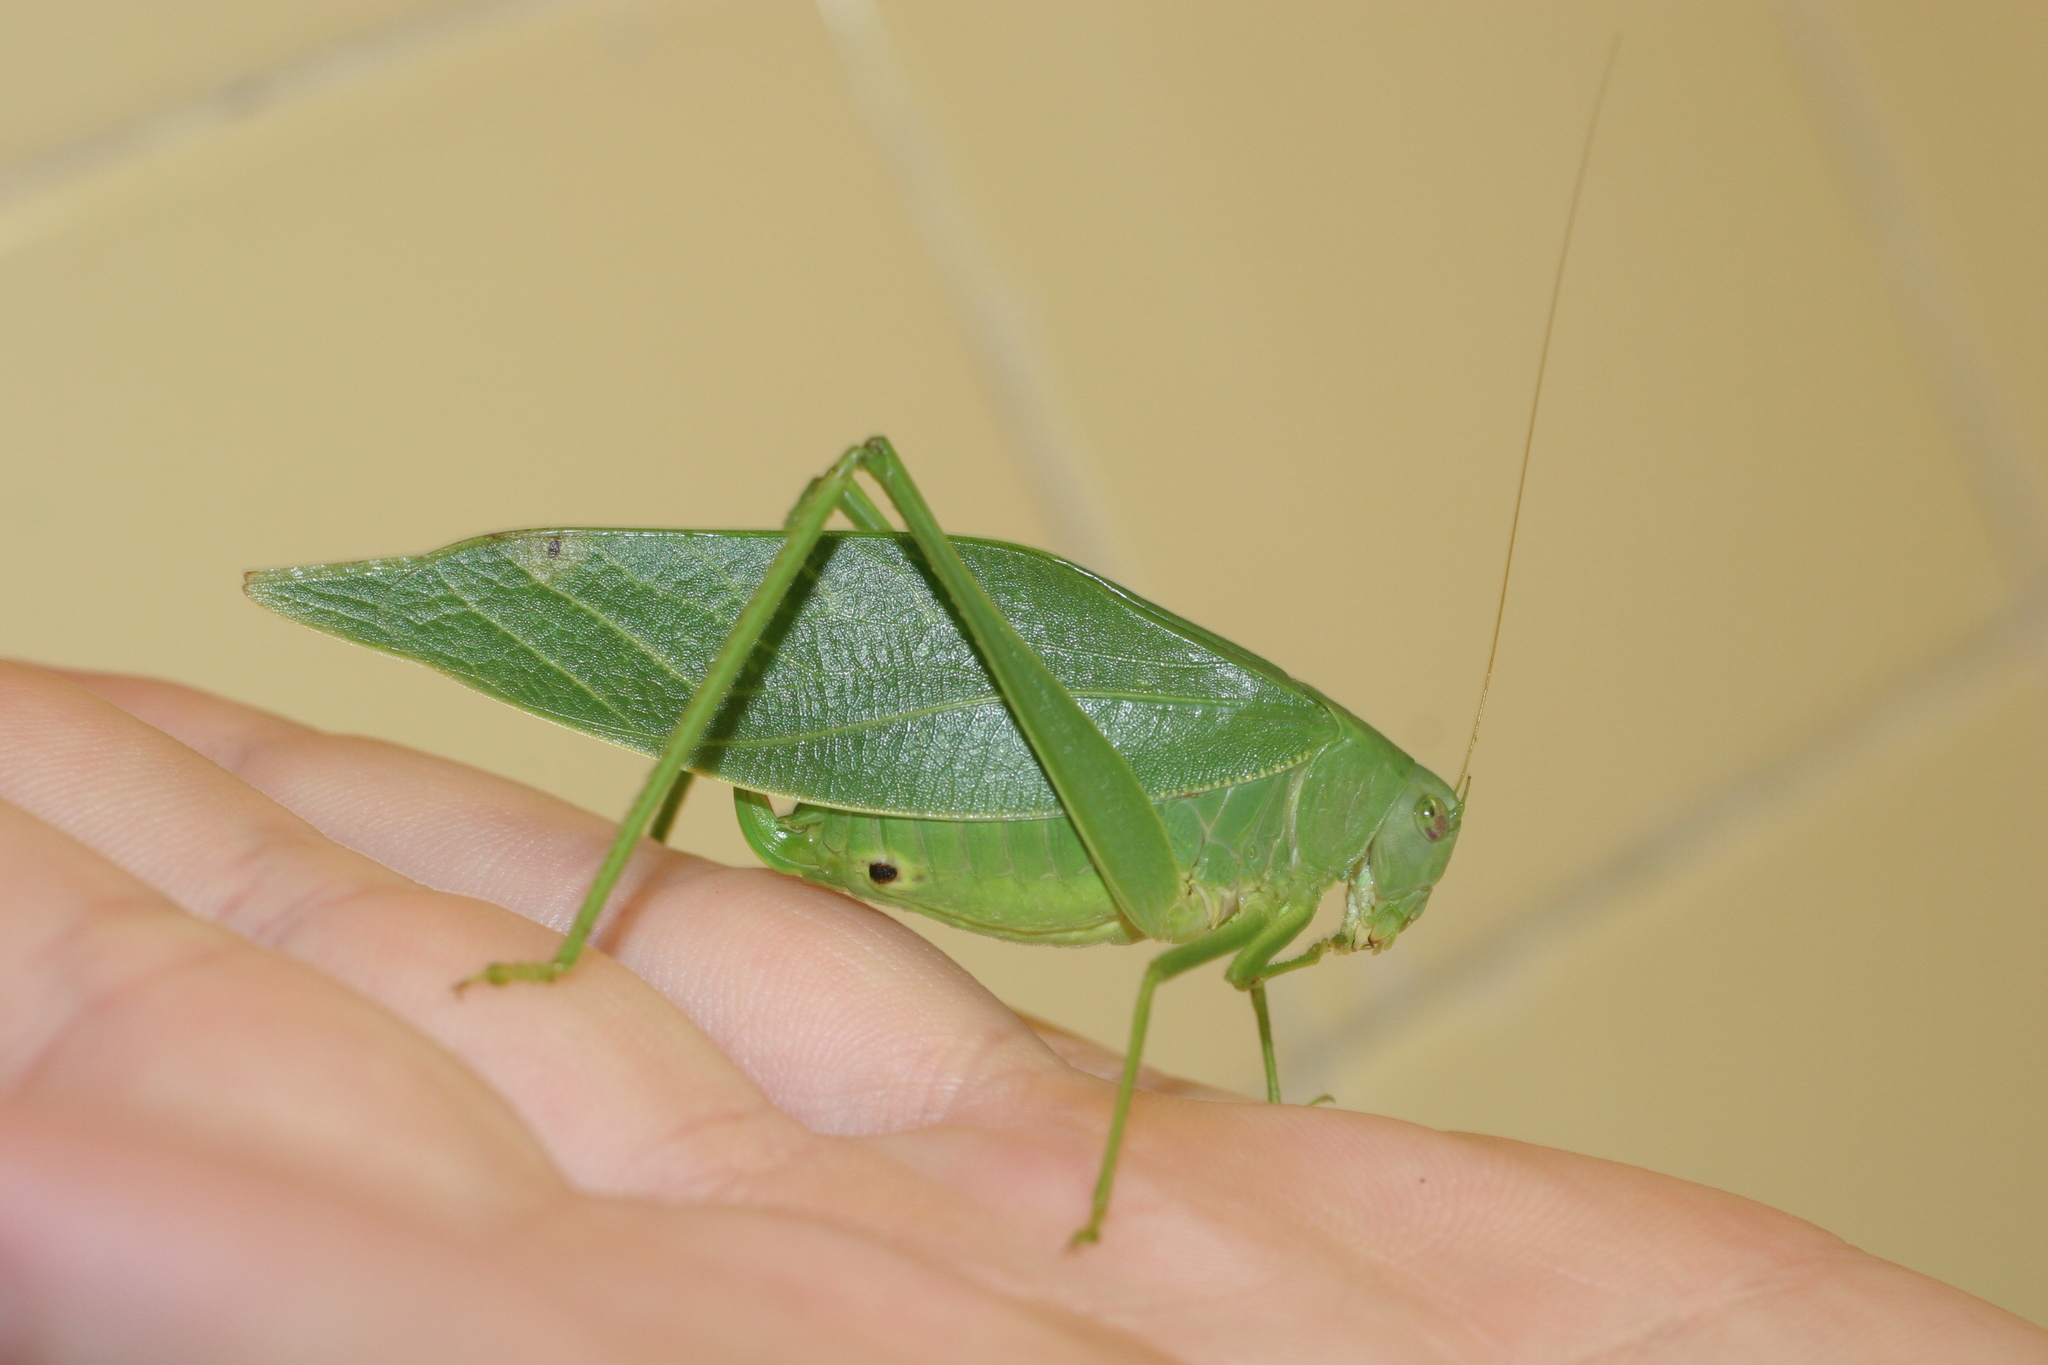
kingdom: Animalia
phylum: Arthropoda
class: Insecta
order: Orthoptera
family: Tettigoniidae
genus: Microcentrum
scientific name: Microcentrum syntechnoides
